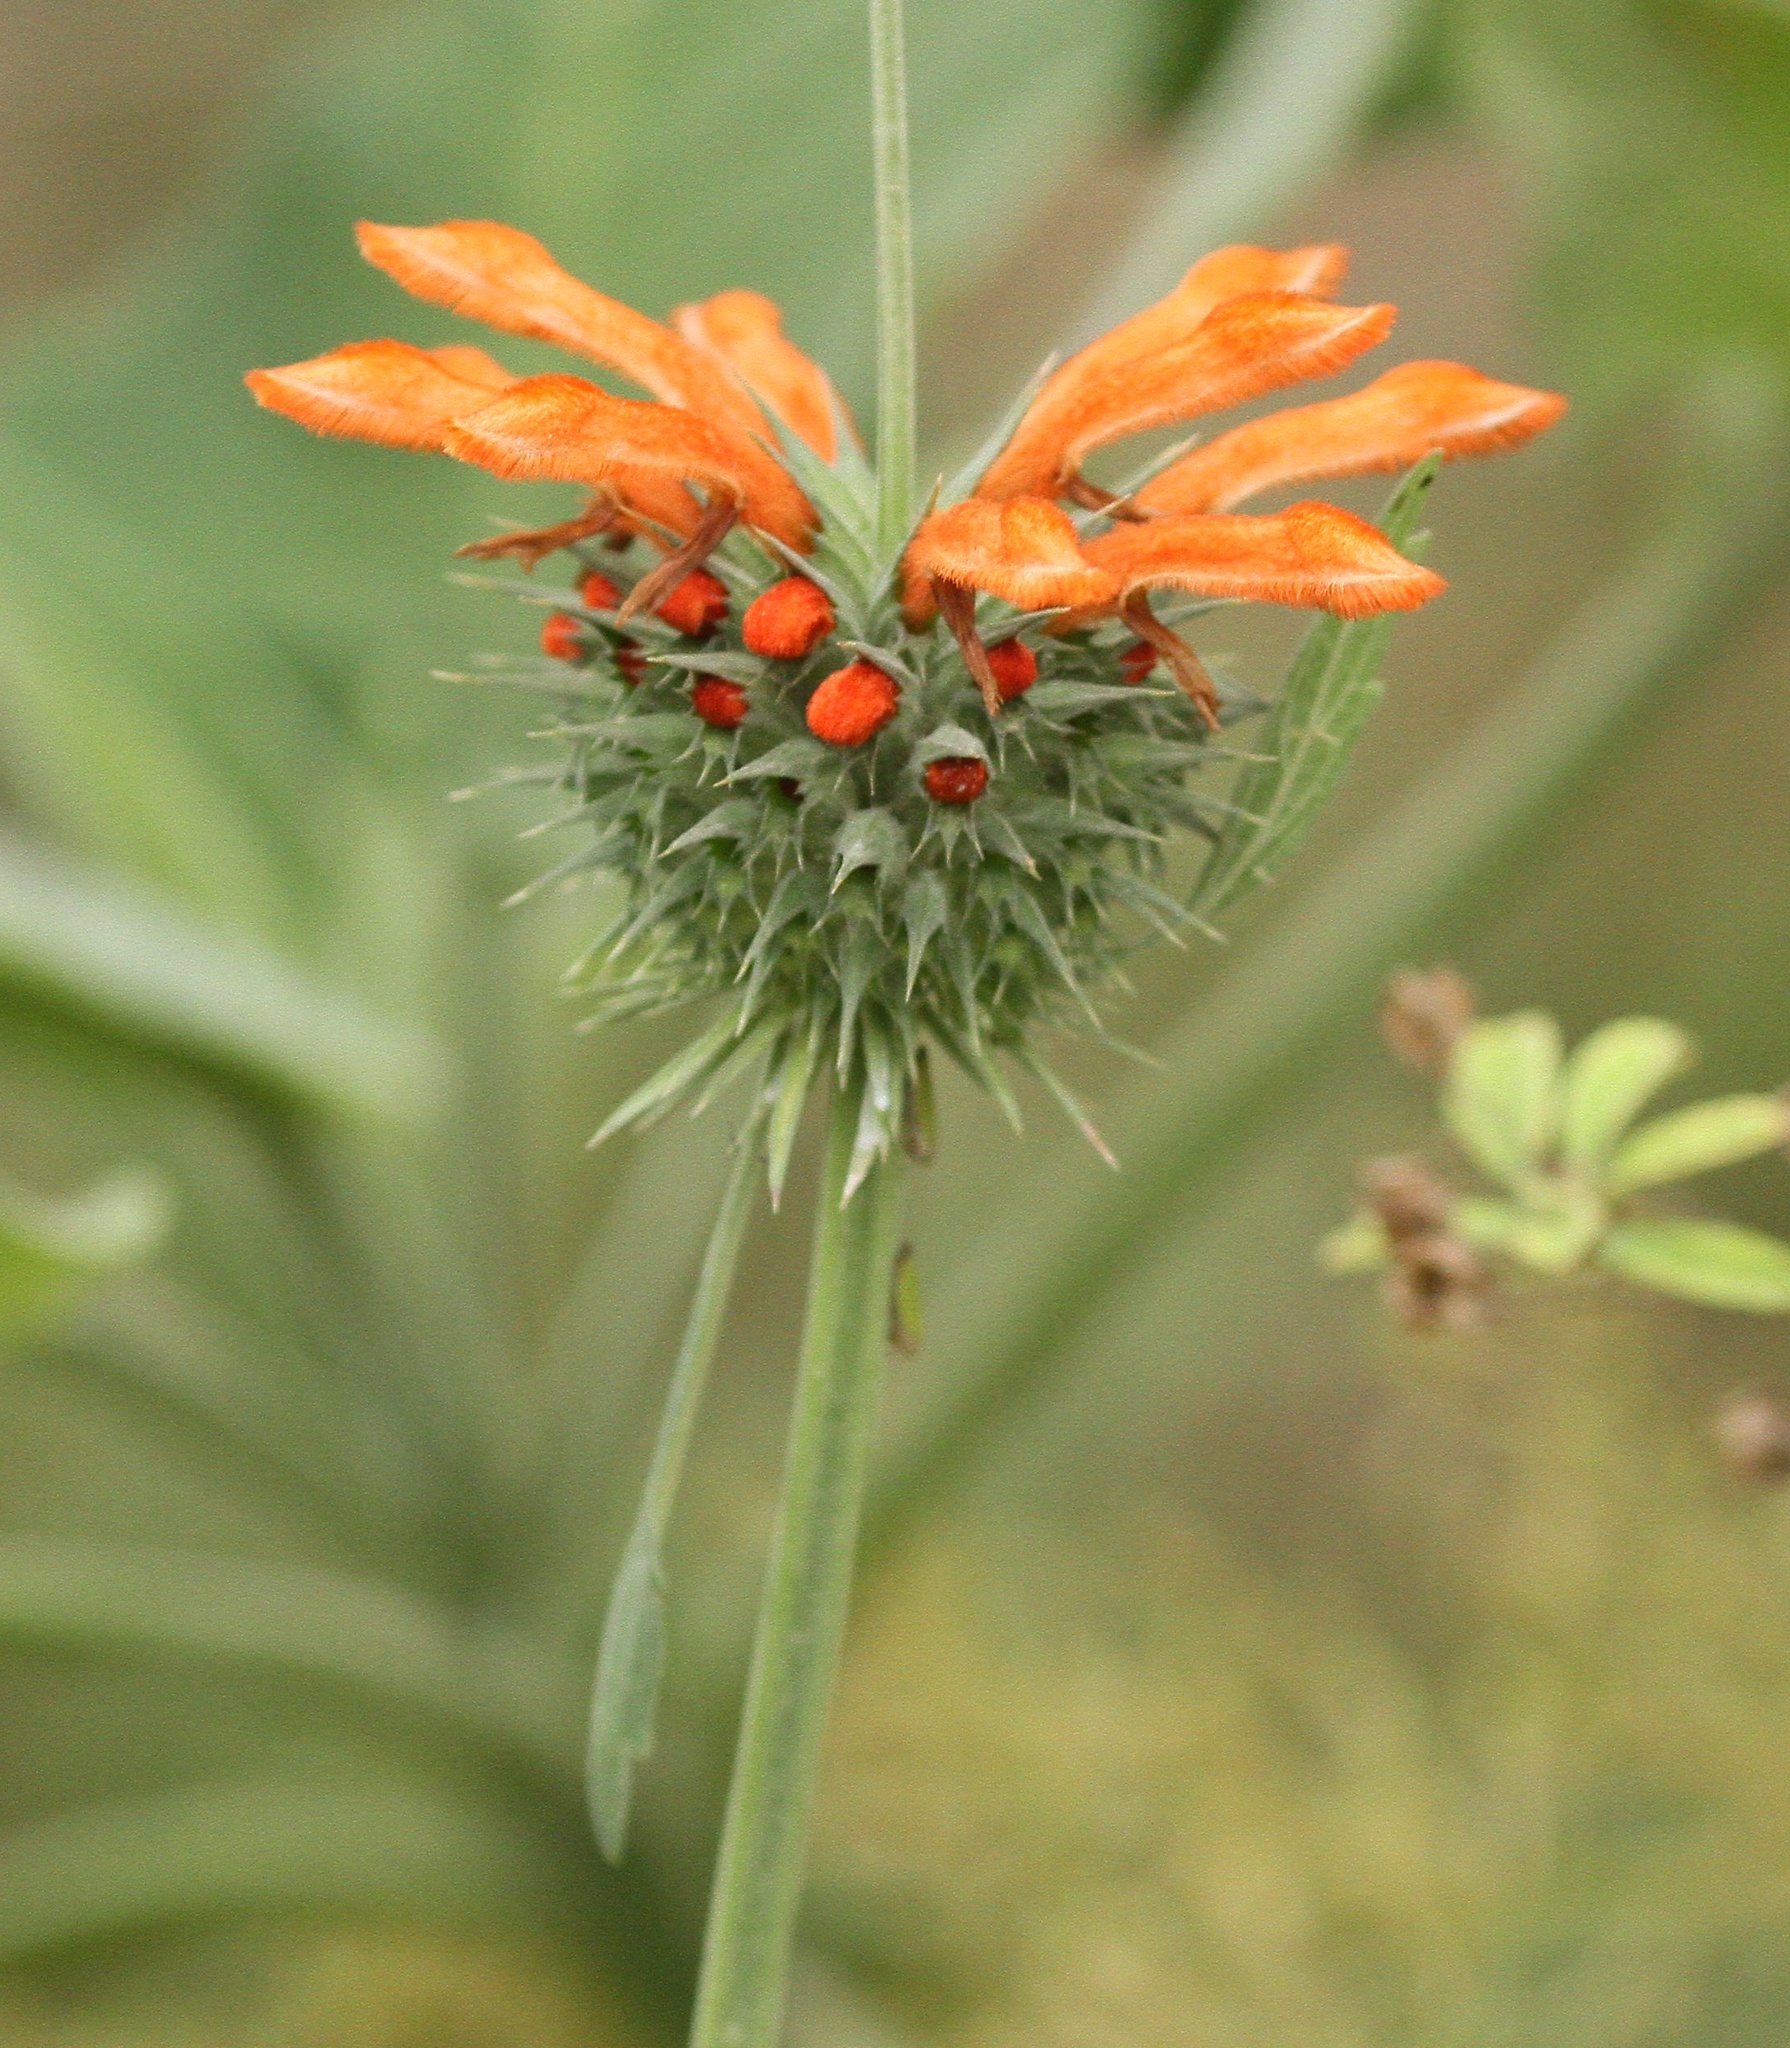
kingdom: Plantae
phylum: Tracheophyta
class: Magnoliopsida
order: Lamiales
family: Lamiaceae
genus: Leonotis
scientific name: Leonotis nepetifolia
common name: Christmas candlestick
